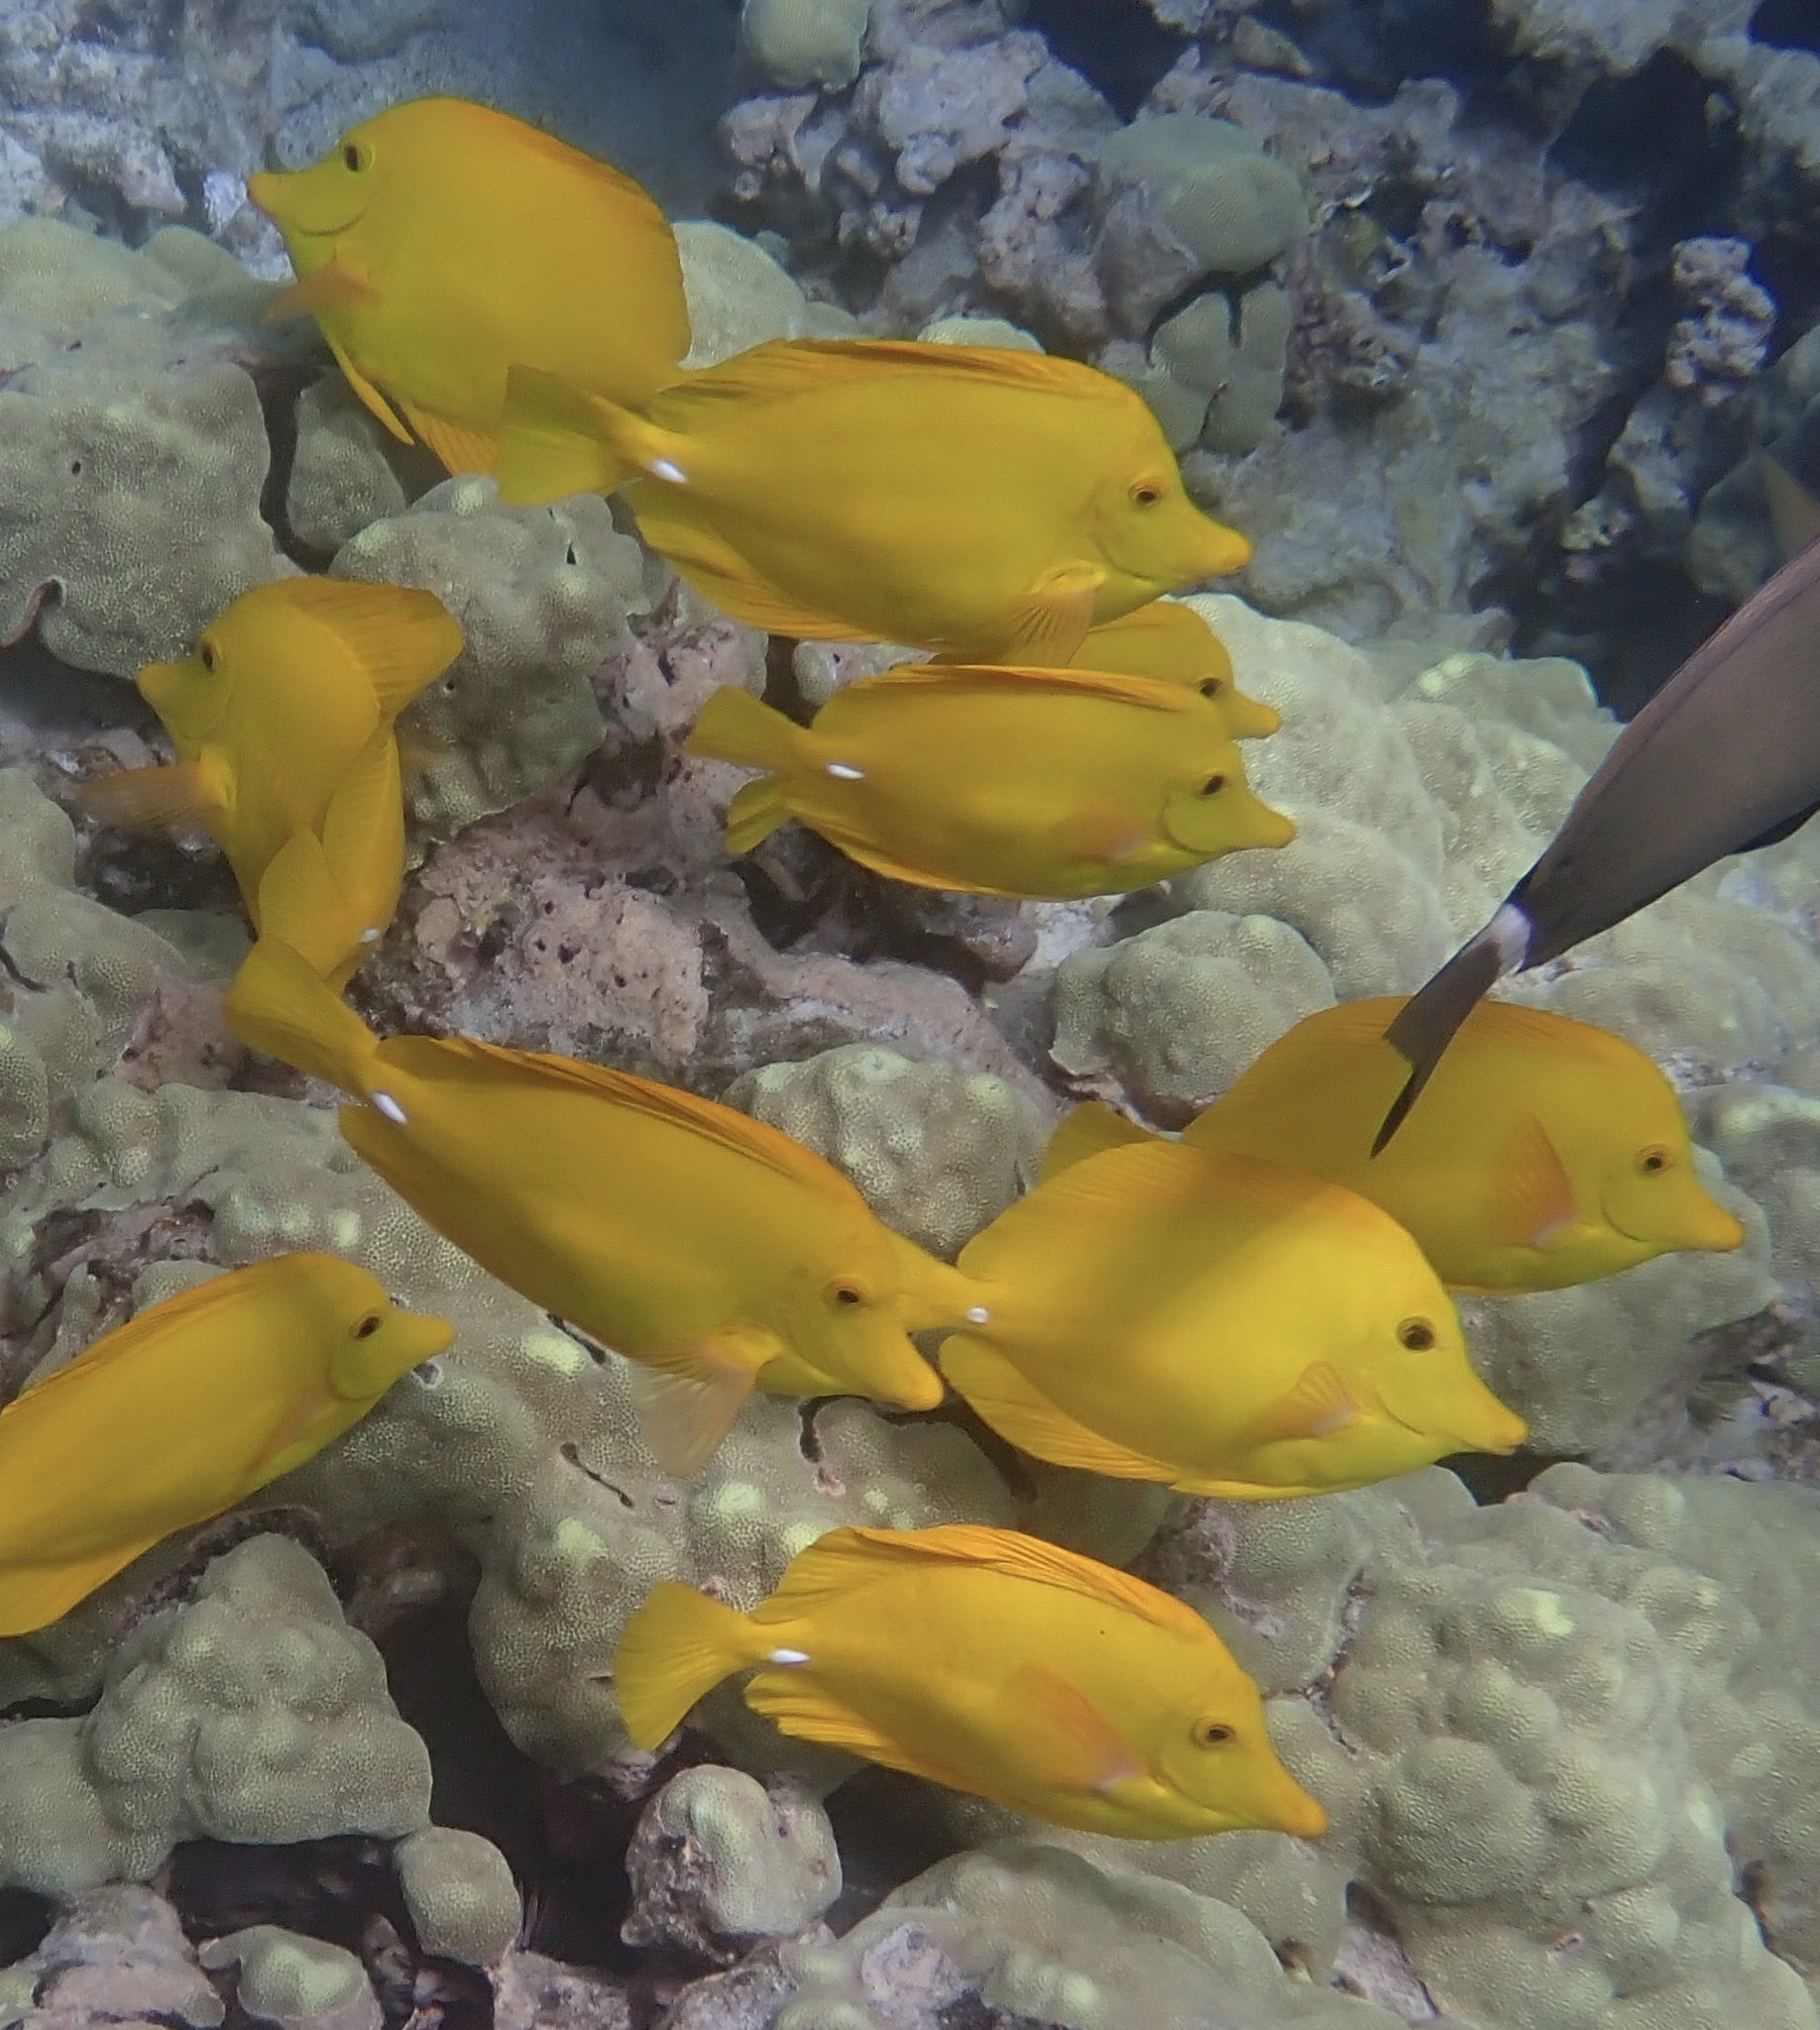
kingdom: Animalia
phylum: Chordata
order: Perciformes
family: Acanthuridae
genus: Zebrasoma
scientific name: Zebrasoma flavescens
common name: Yellow tang
